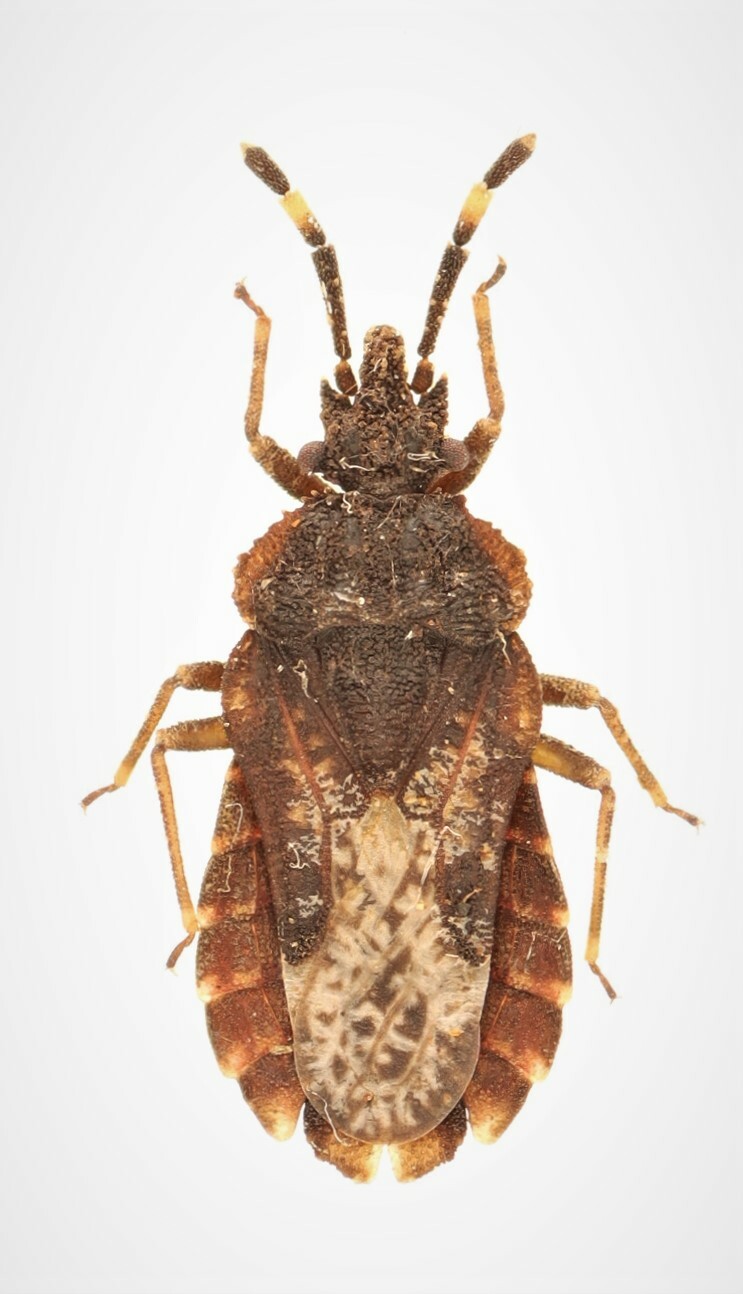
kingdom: Animalia
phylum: Arthropoda
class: Insecta
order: Hemiptera
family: Aradidae
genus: Aradus
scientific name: Aradus similis
